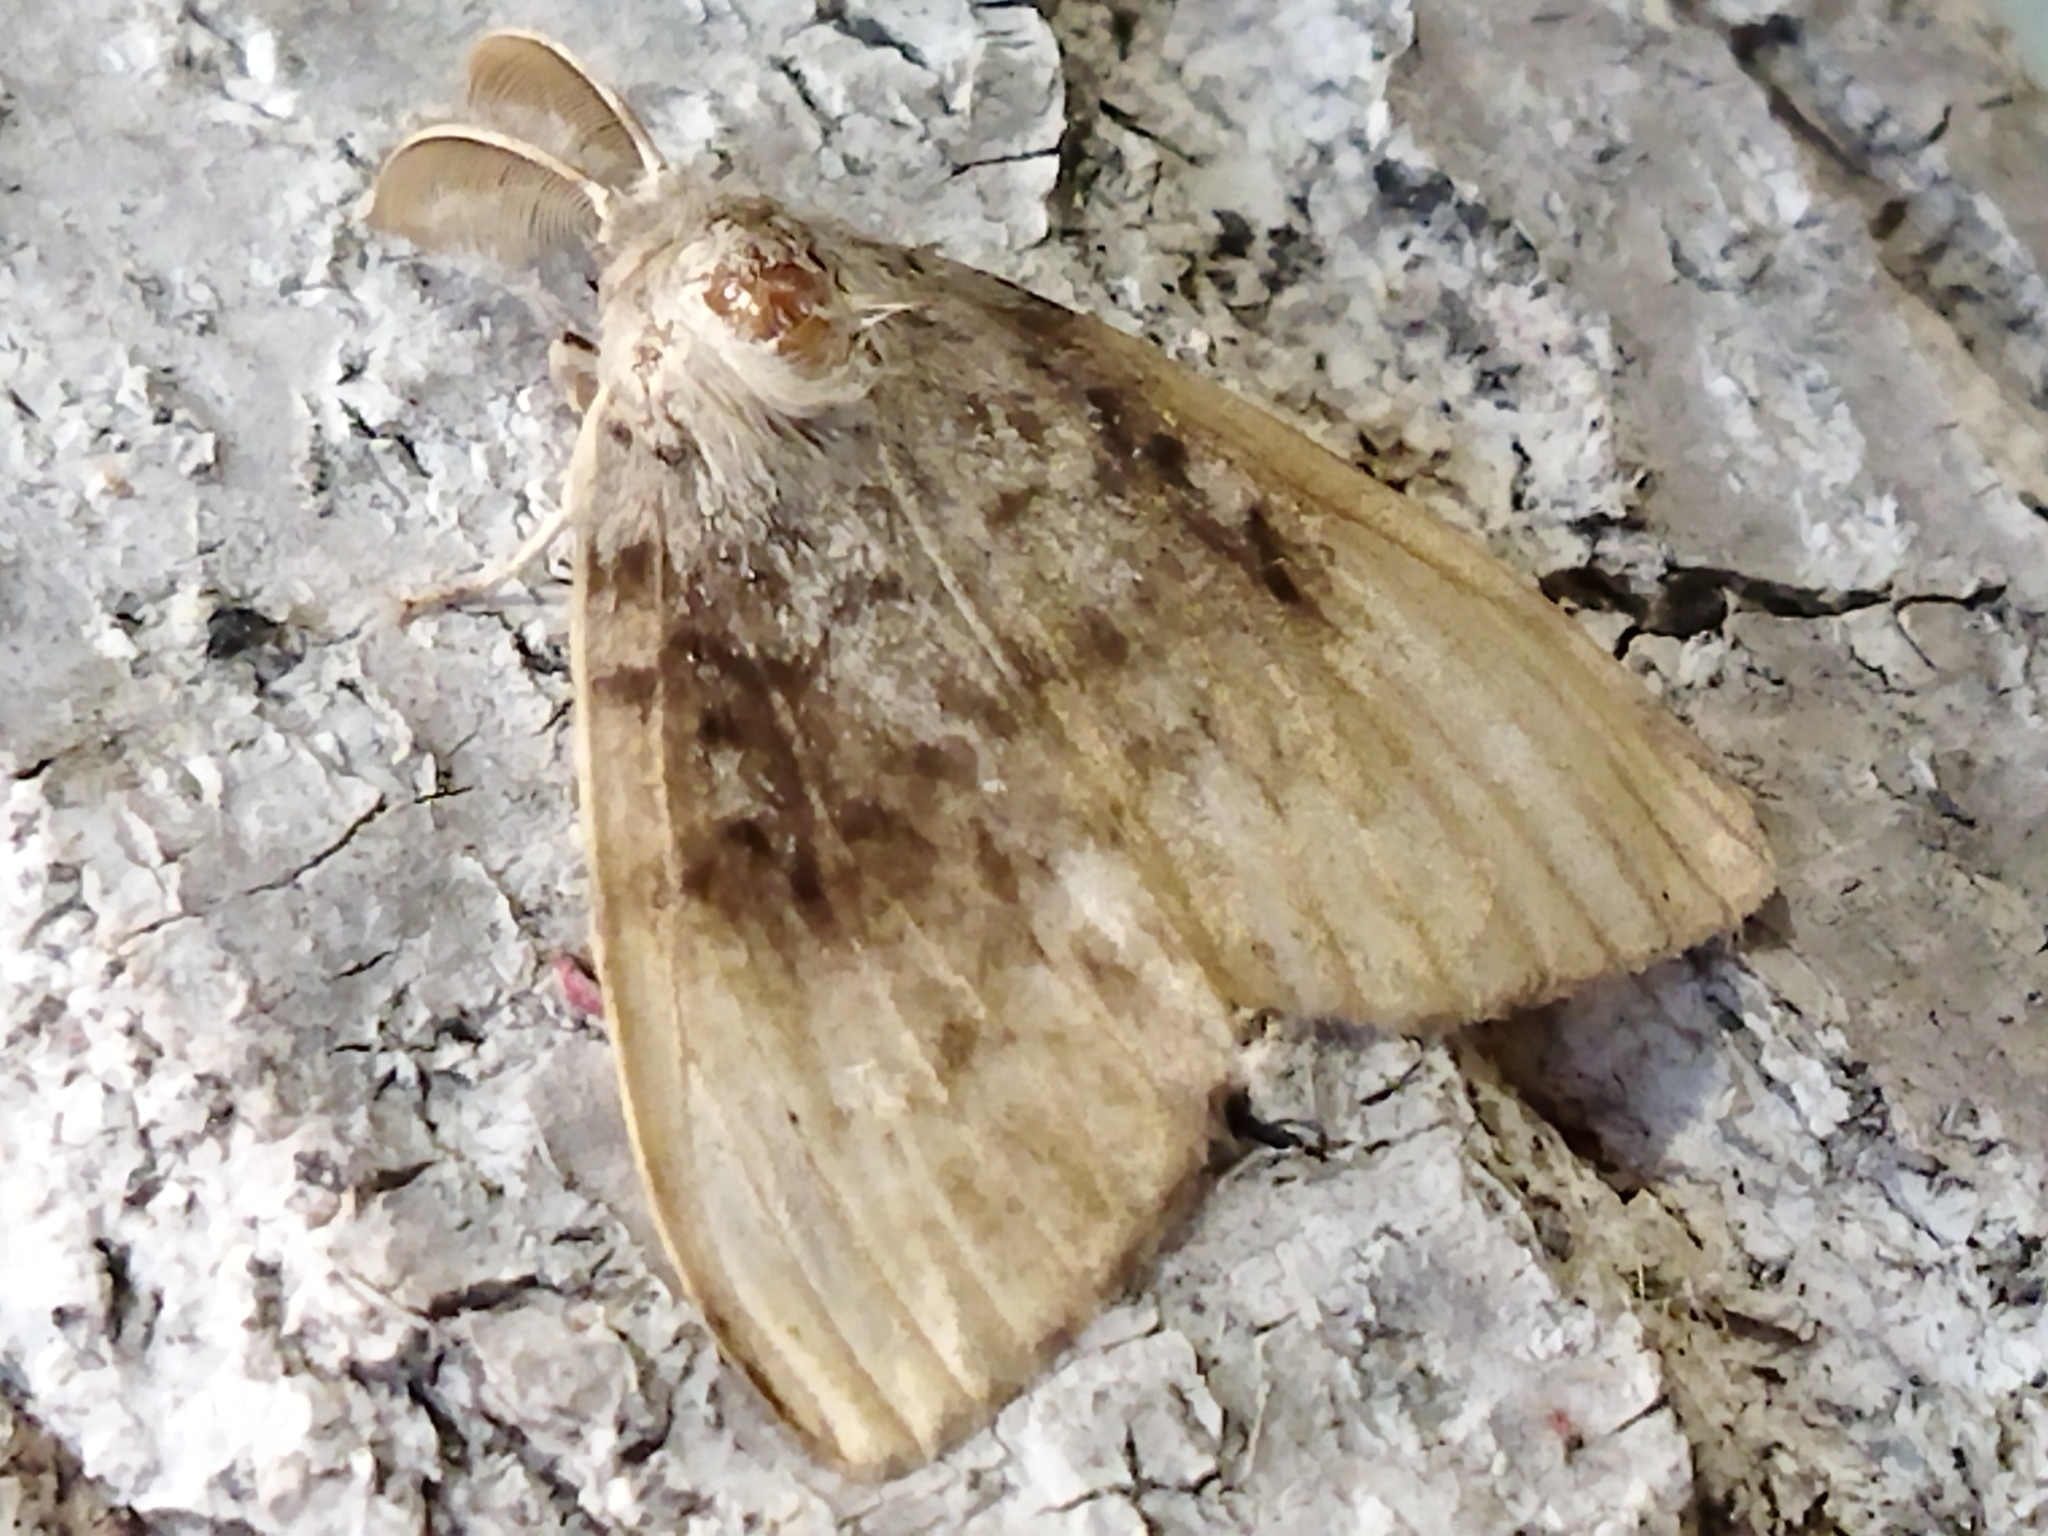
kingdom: Animalia
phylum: Arthropoda
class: Insecta
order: Lepidoptera
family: Erebidae
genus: Lymantria
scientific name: Lymantria dispar
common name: Gypsy moth
